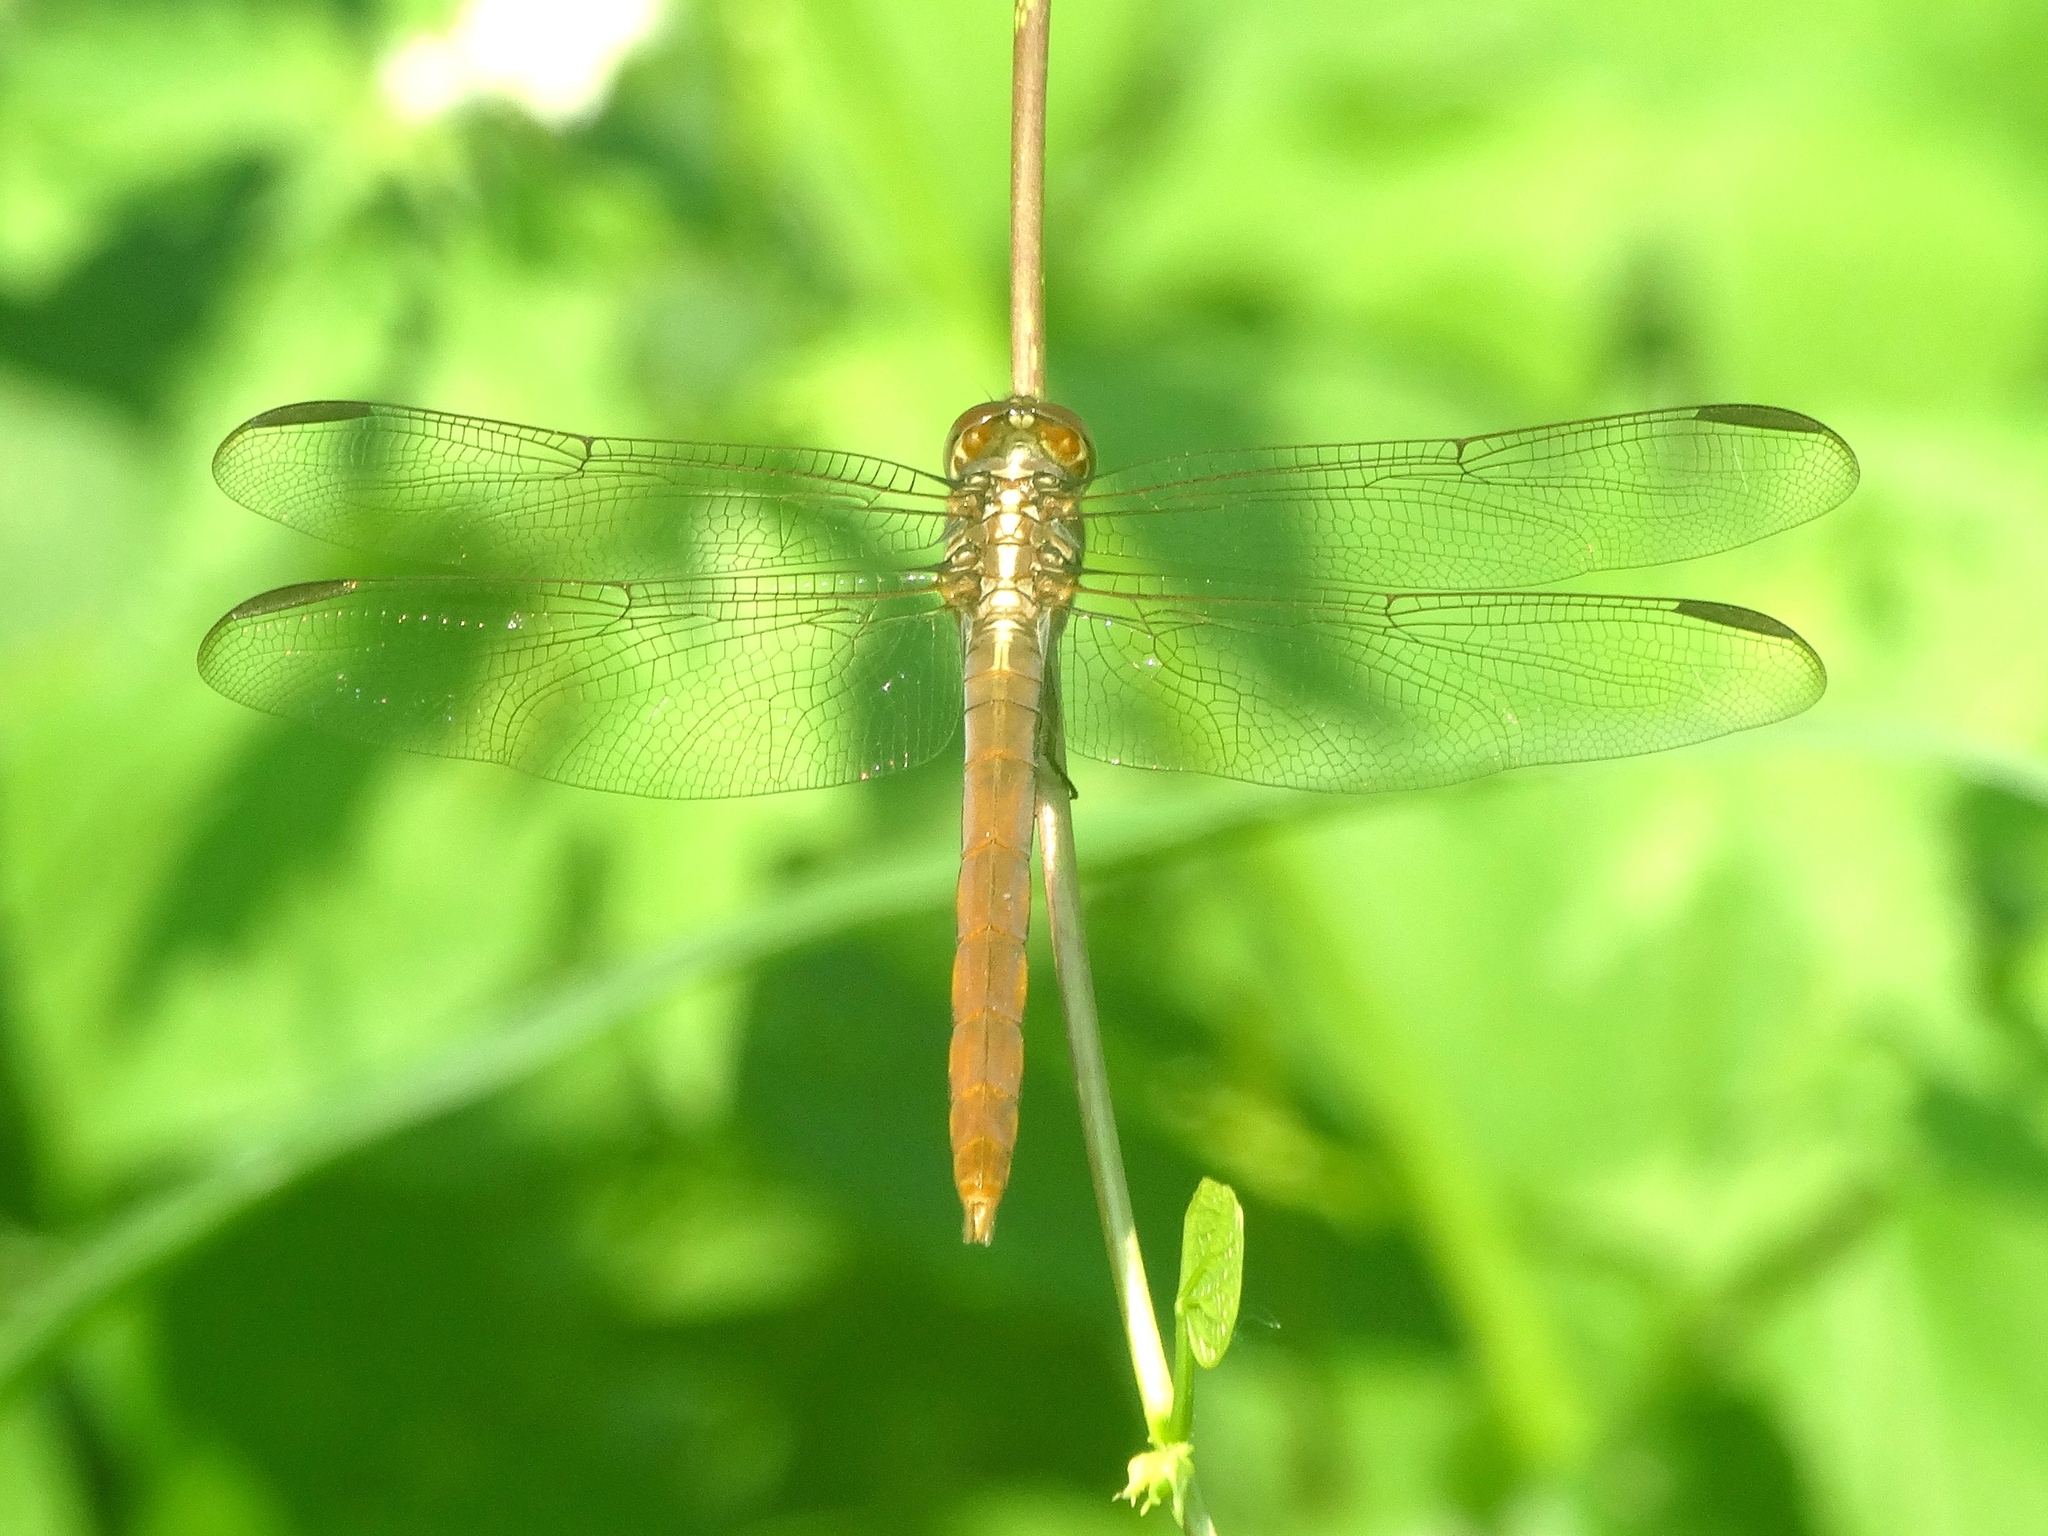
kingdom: Animalia
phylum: Arthropoda
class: Insecta
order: Odonata
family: Libellulidae
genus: Orthemis
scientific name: Orthemis
